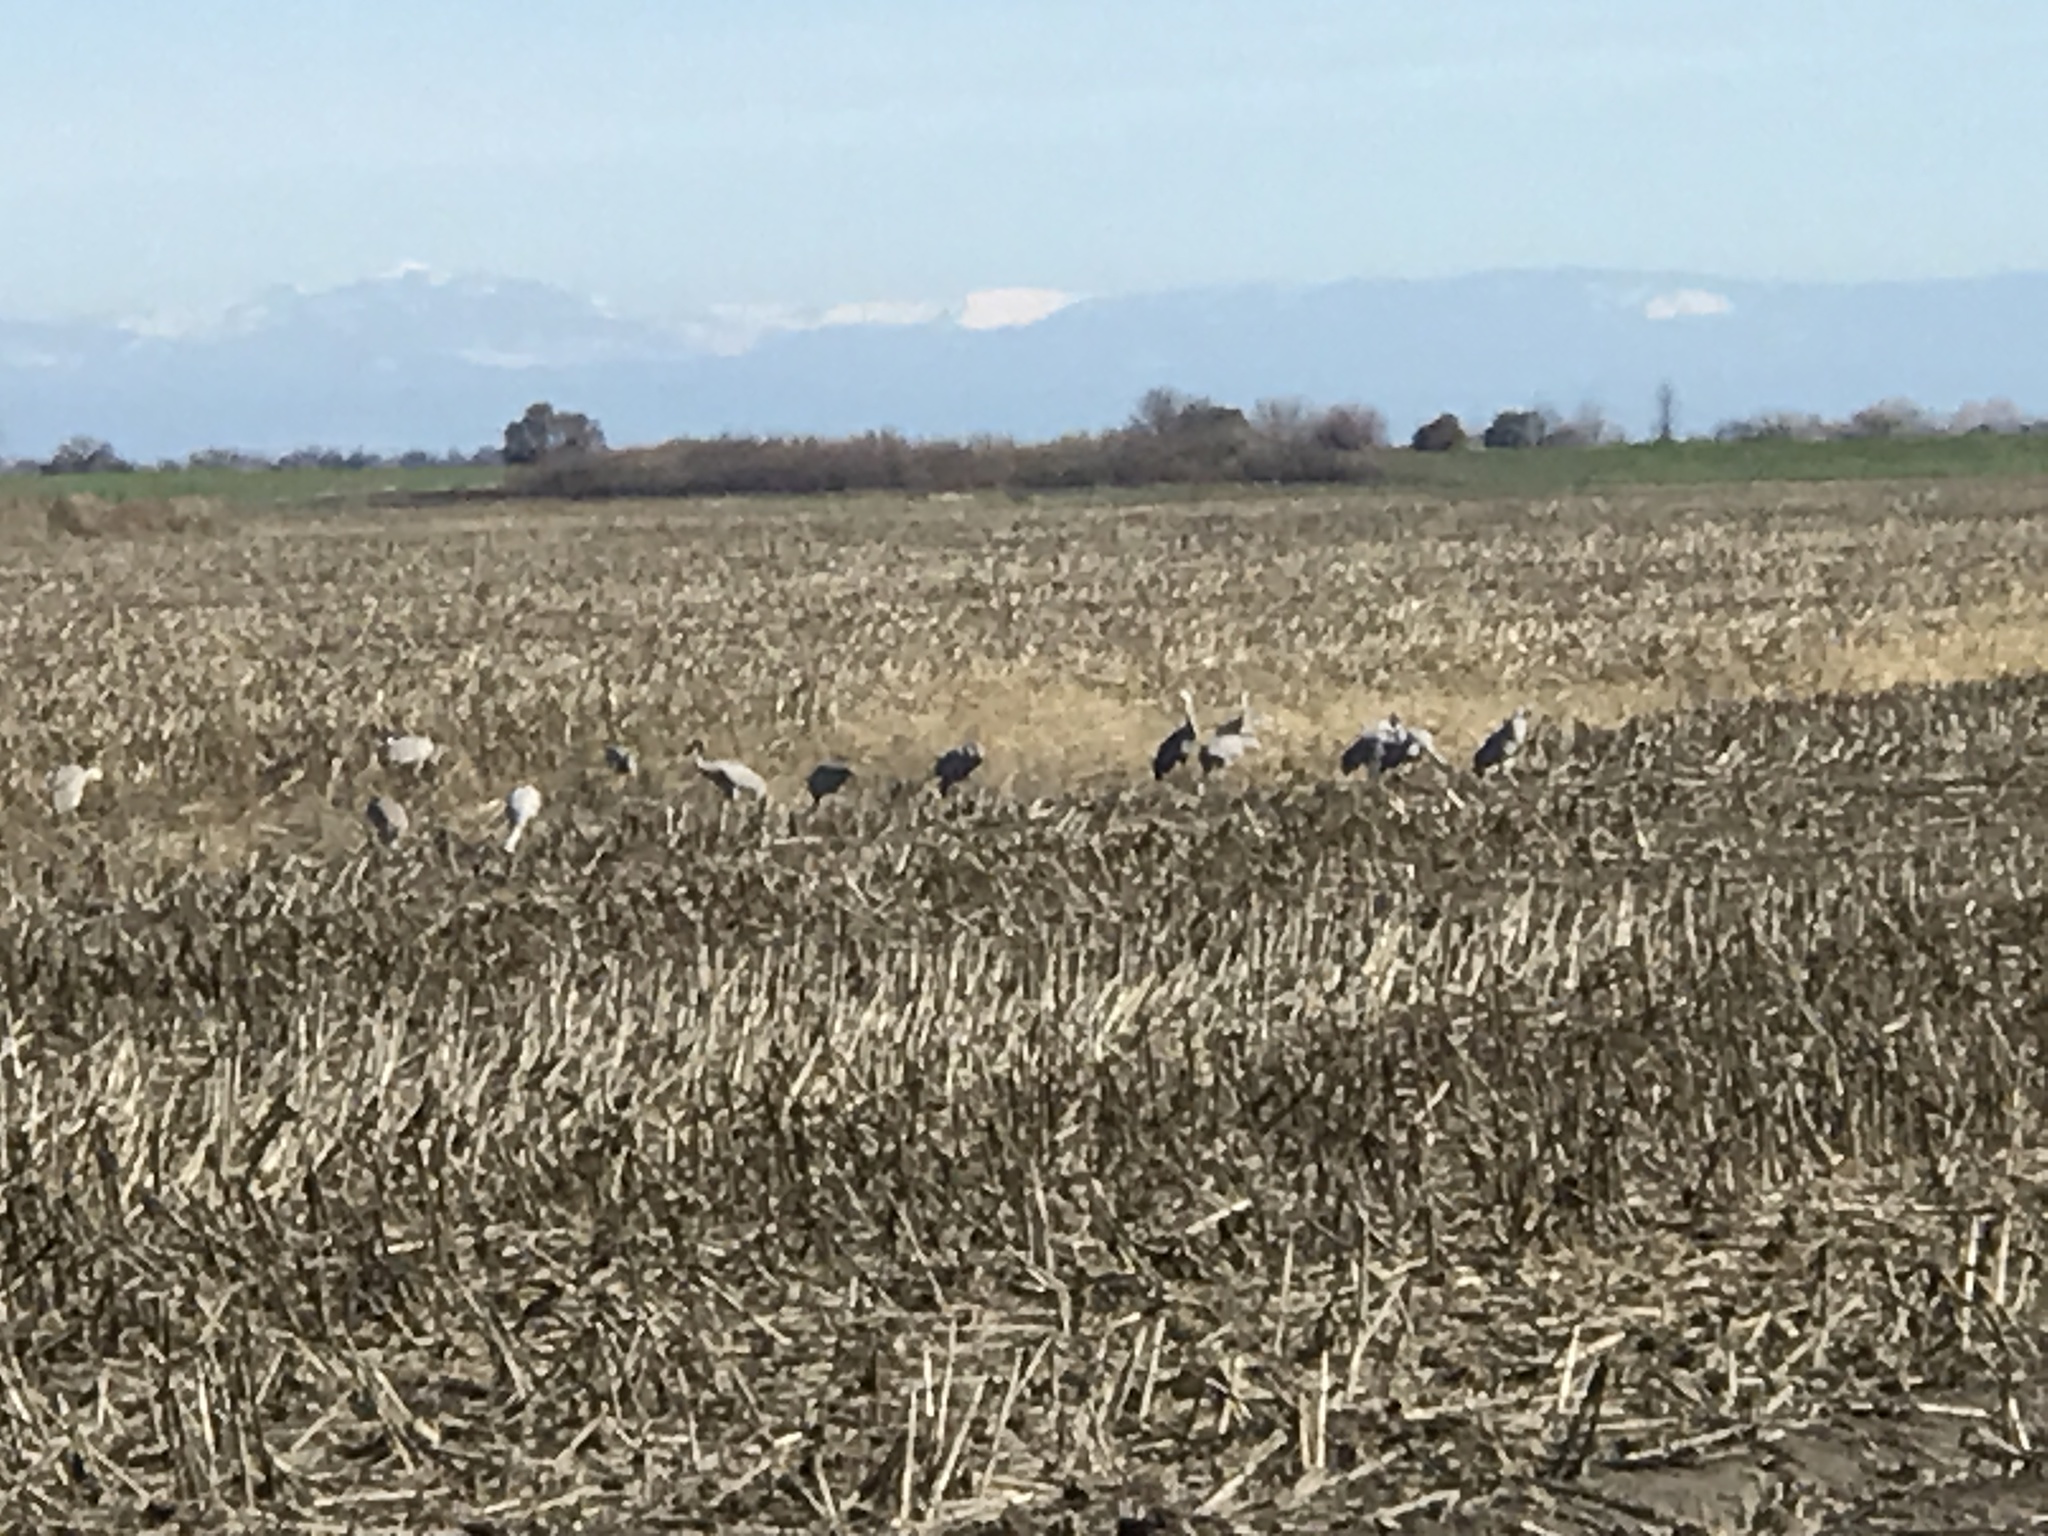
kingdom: Animalia
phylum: Chordata
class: Aves
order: Gruiformes
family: Gruidae
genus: Grus
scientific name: Grus canadensis
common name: Sandhill crane
